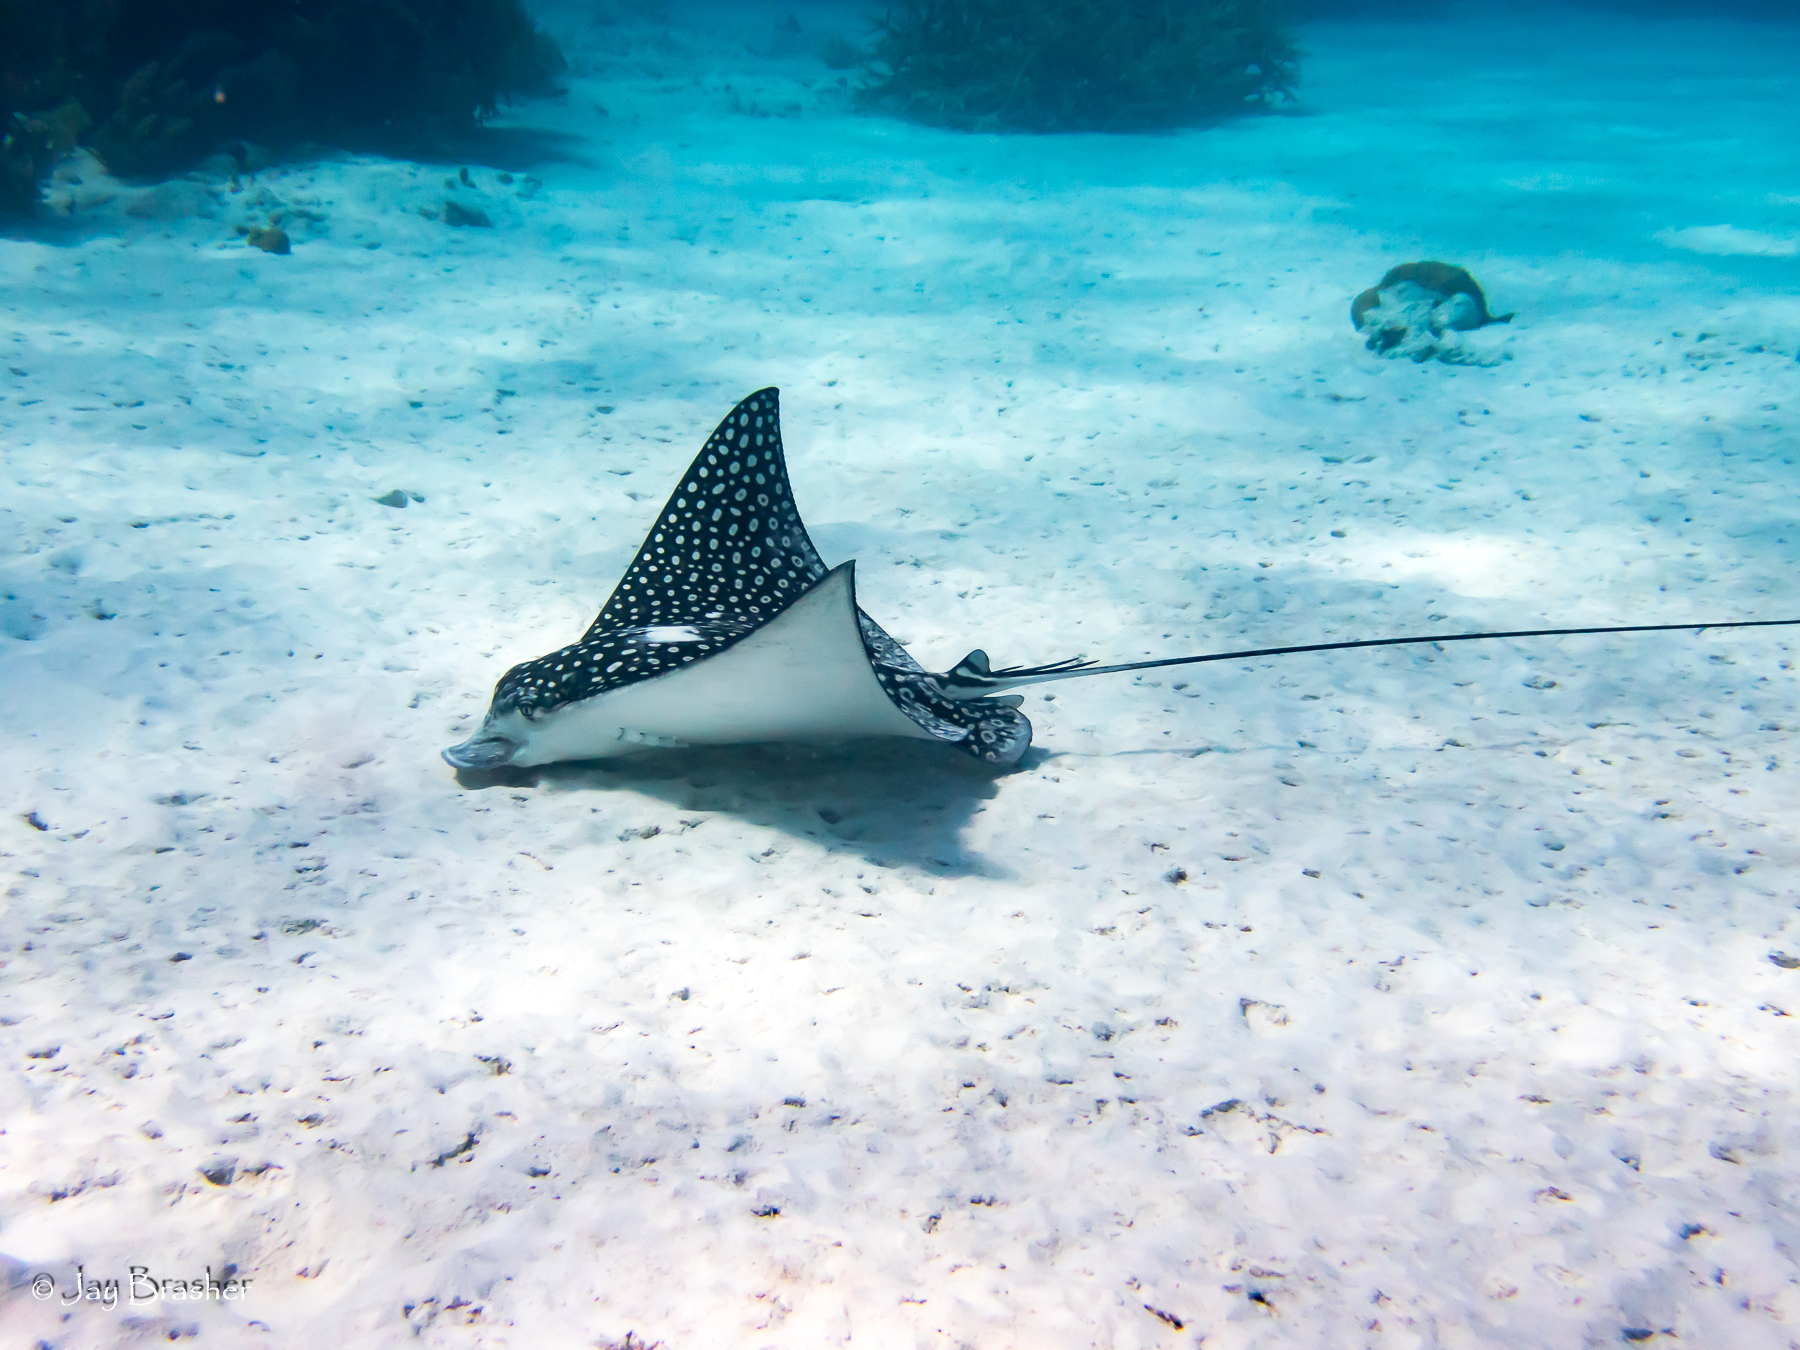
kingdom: Animalia
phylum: Chordata
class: Elasmobranchii
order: Myliobatiformes
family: Myliobatidae
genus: Aetobatus
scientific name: Aetobatus narinari
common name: Spotted eagle ray
